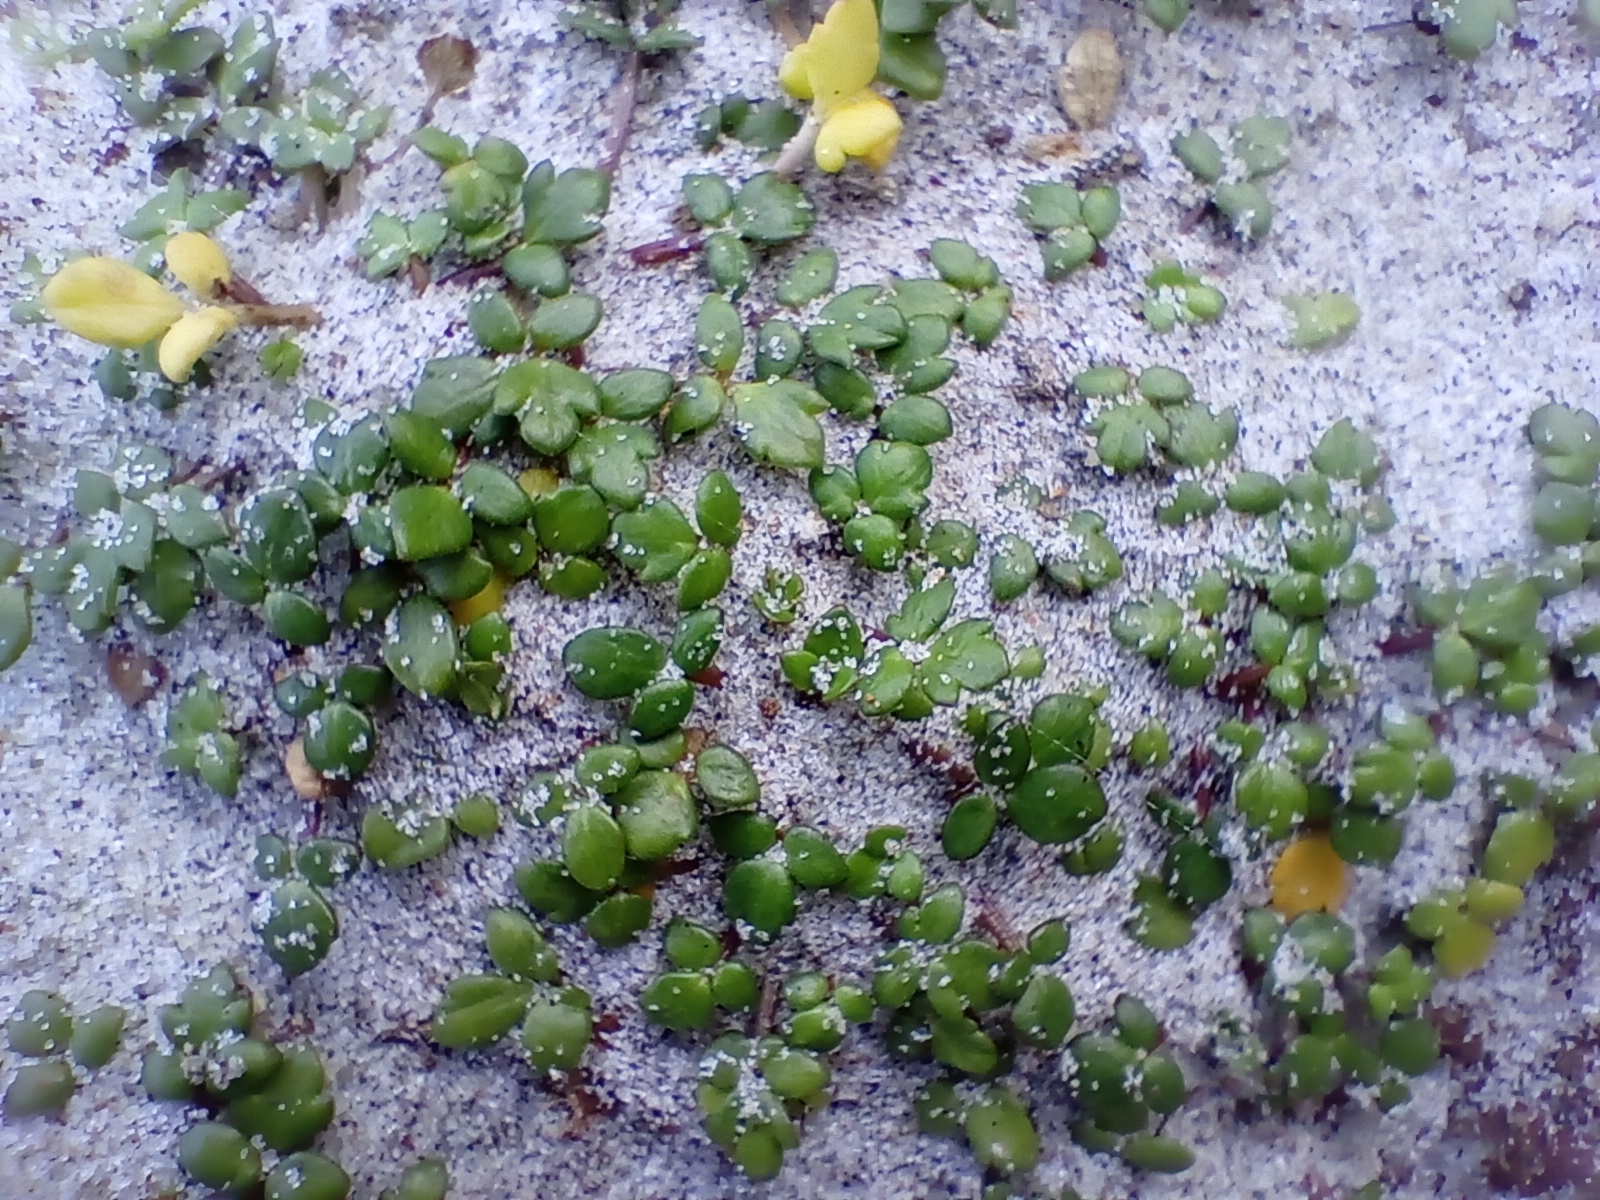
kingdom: Plantae
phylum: Tracheophyta
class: Magnoliopsida
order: Ranunculales
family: Ranunculaceae
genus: Ranunculus
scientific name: Ranunculus acaulis
